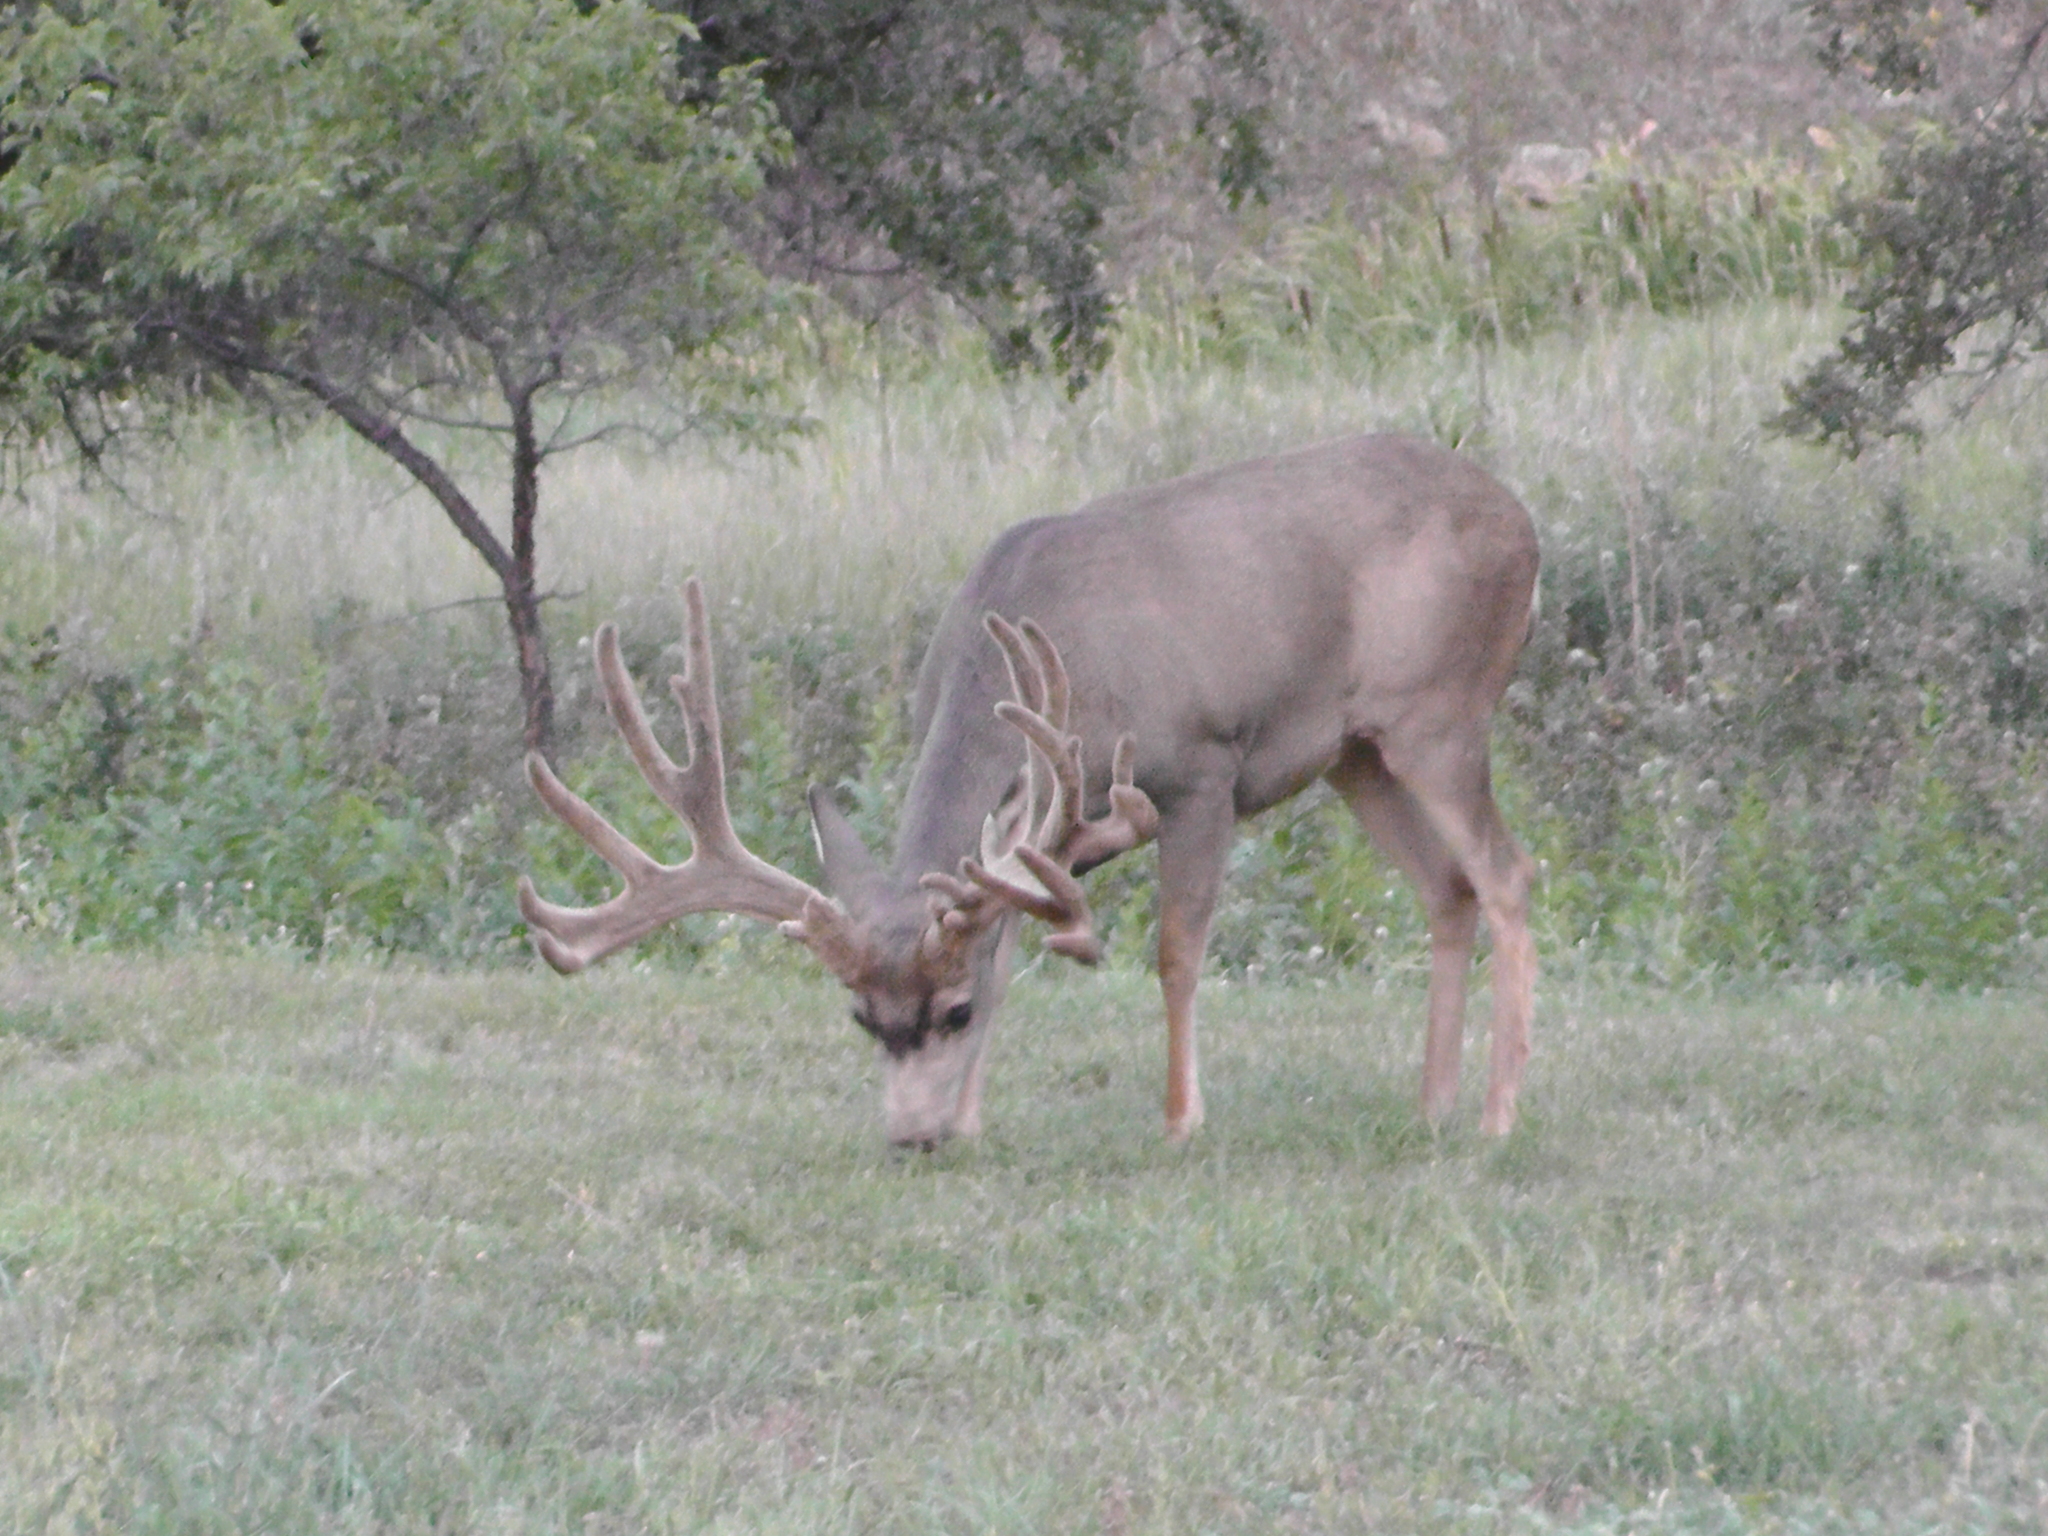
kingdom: Animalia
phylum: Chordata
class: Mammalia
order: Artiodactyla
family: Cervidae
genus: Odocoileus
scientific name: Odocoileus hemionus
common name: Mule deer
